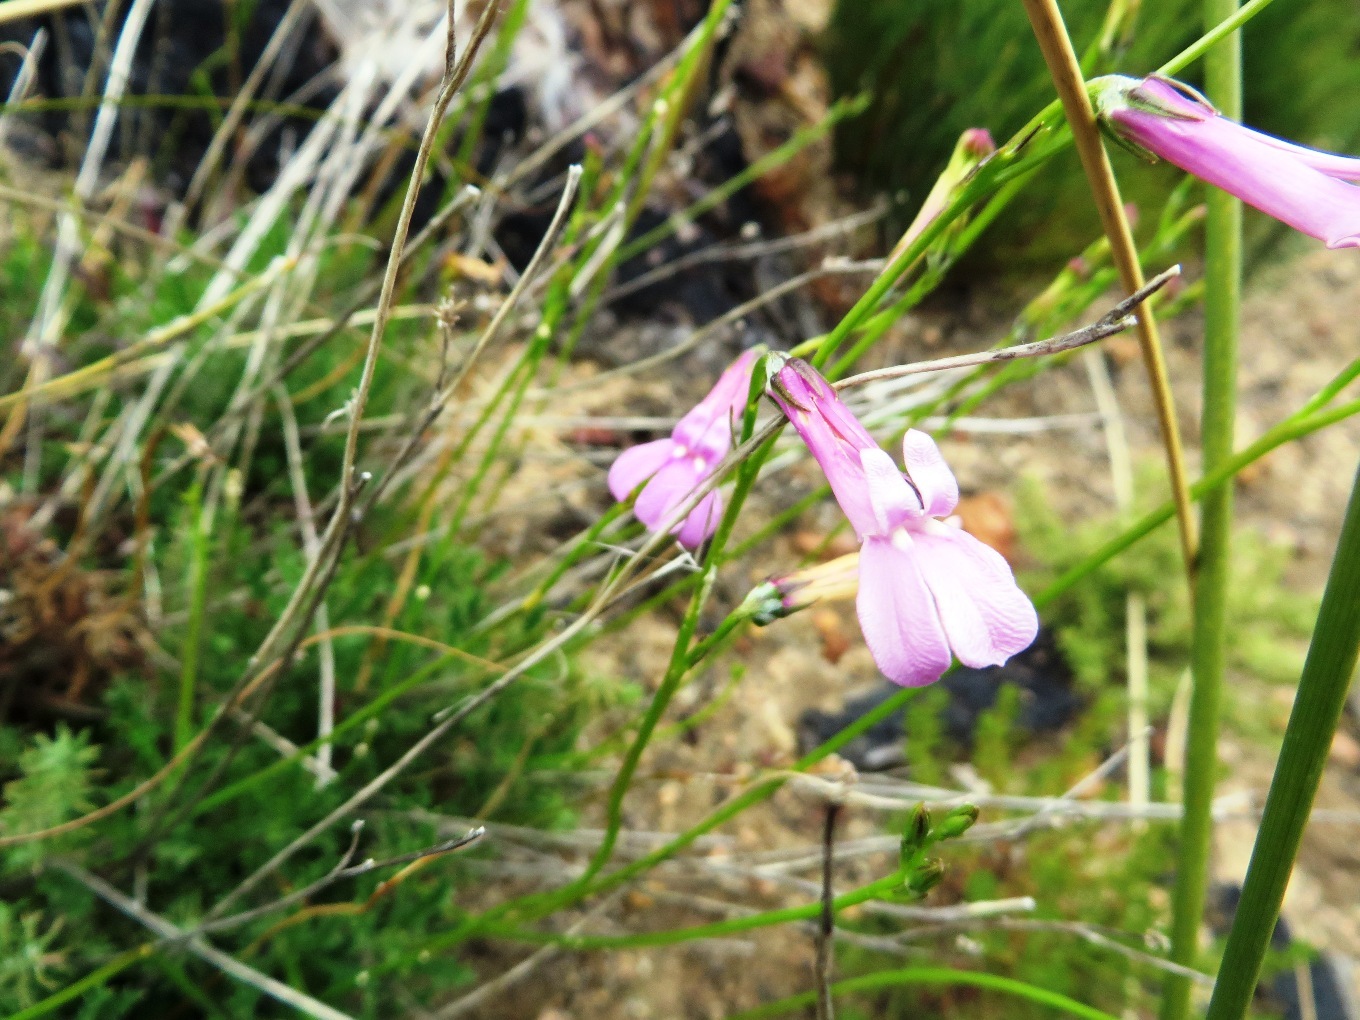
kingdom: Plantae
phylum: Tracheophyta
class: Magnoliopsida
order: Asterales
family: Campanulaceae
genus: Lobelia
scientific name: Lobelia coronopifolia
